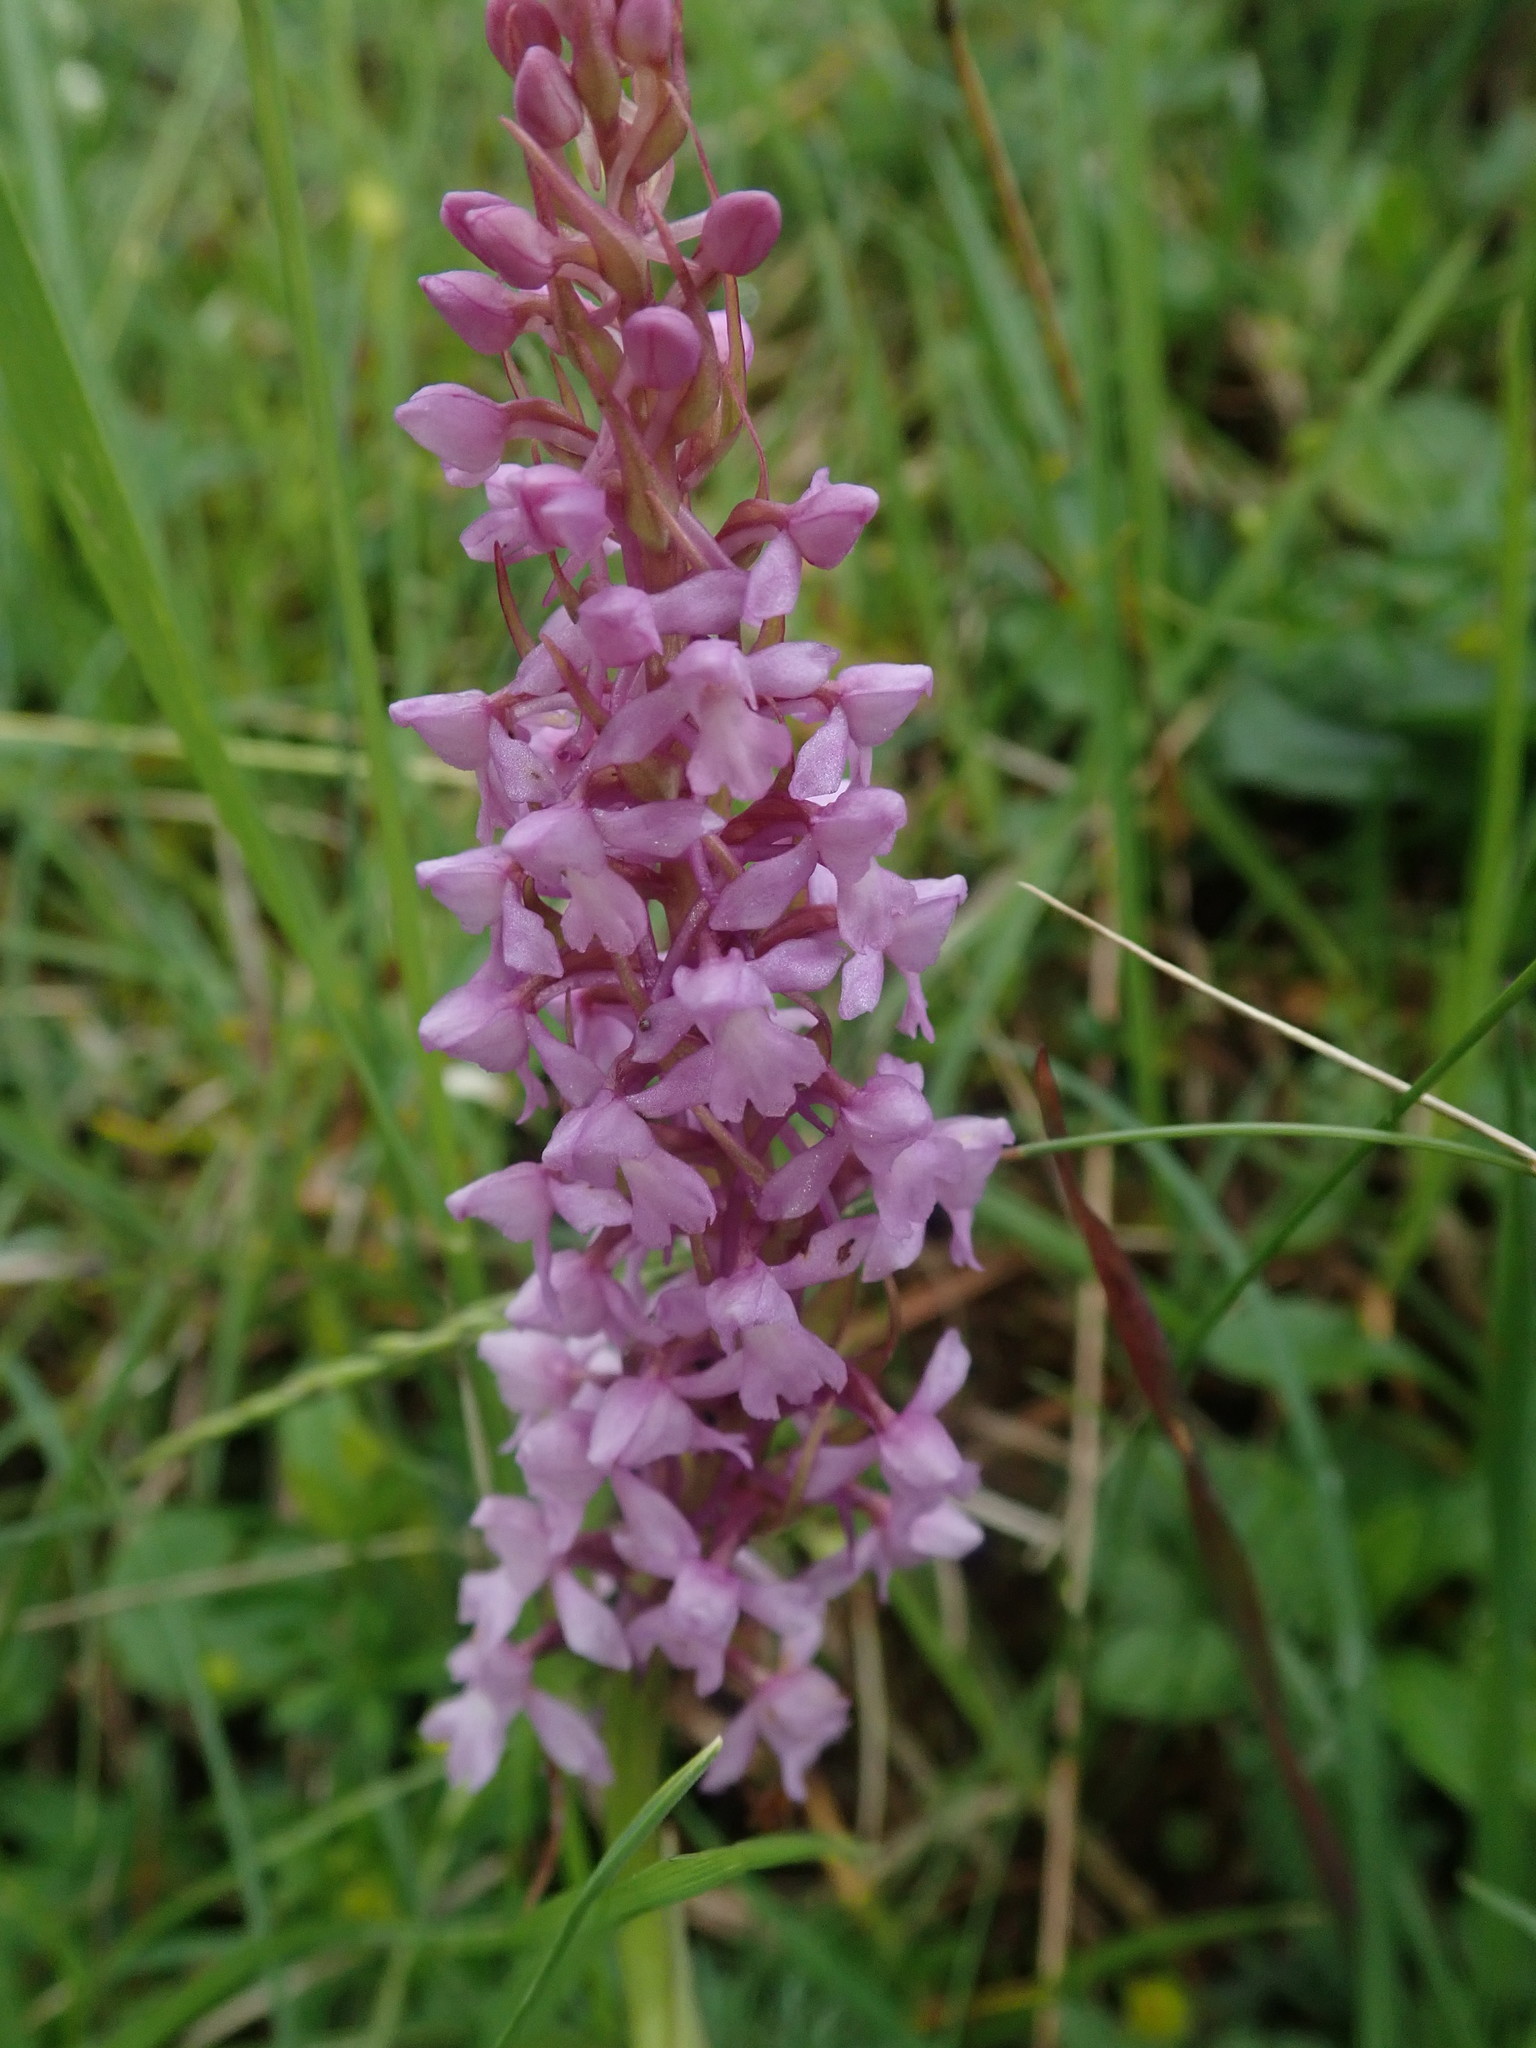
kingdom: Plantae
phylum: Tracheophyta
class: Liliopsida
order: Asparagales
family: Orchidaceae
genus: Gymnadenia
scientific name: Gymnadenia conopsea
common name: Fragrant orchid
